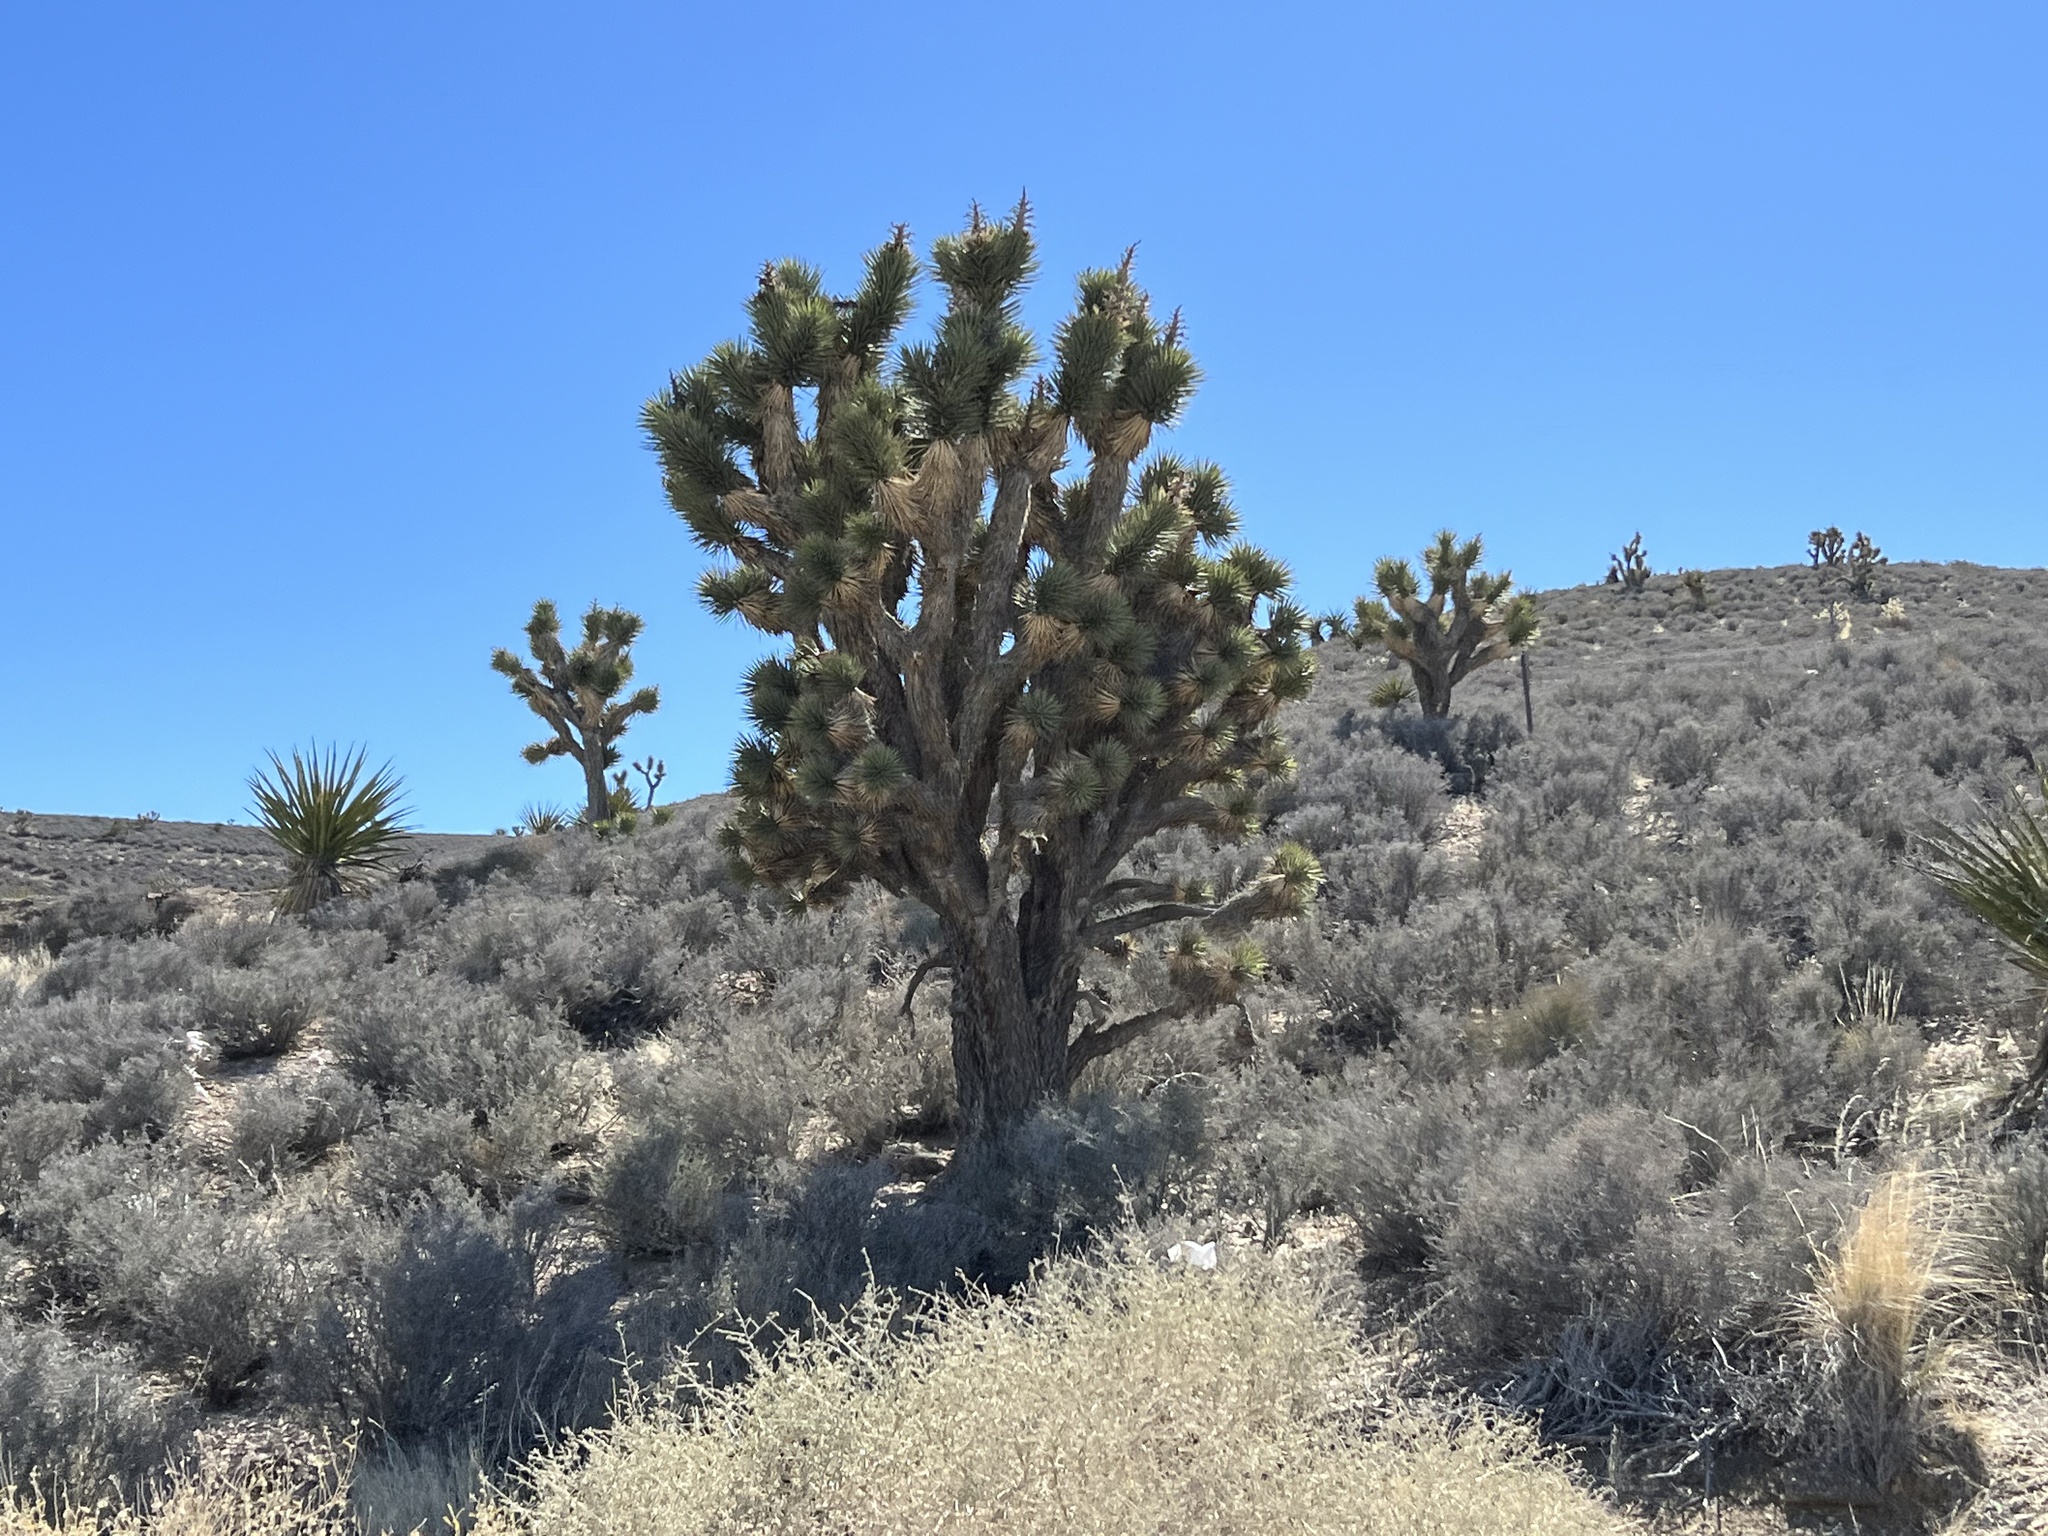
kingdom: Plantae
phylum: Tracheophyta
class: Liliopsida
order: Asparagales
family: Asparagaceae
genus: Yucca
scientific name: Yucca brevifolia
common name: Joshua tree
